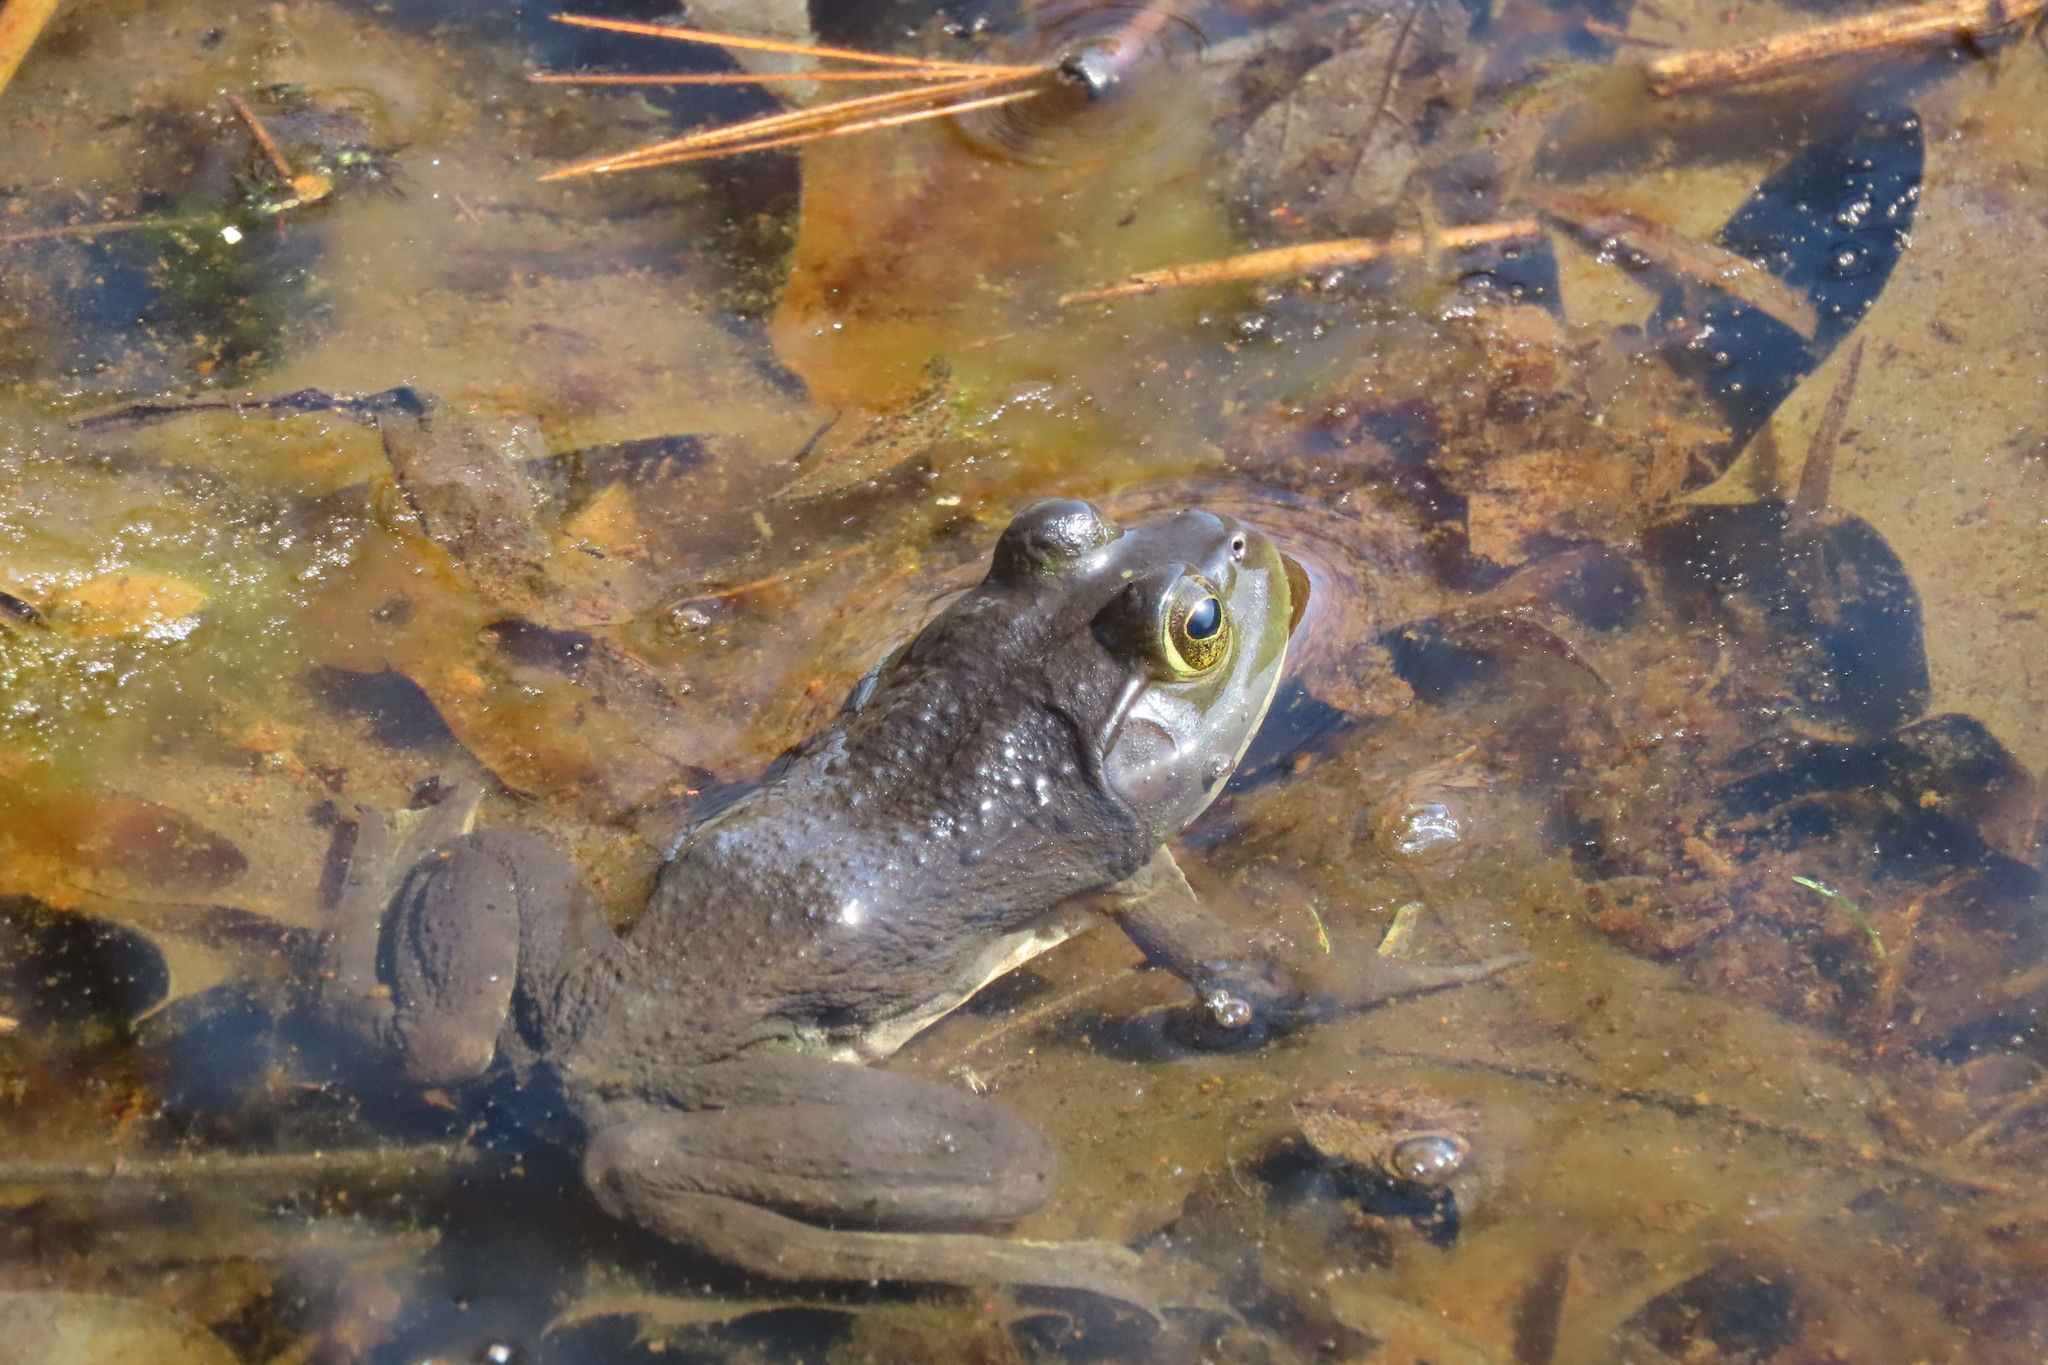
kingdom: Animalia
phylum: Chordata
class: Amphibia
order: Anura
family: Ranidae
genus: Lithobates
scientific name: Lithobates catesbeianus
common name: American bullfrog
